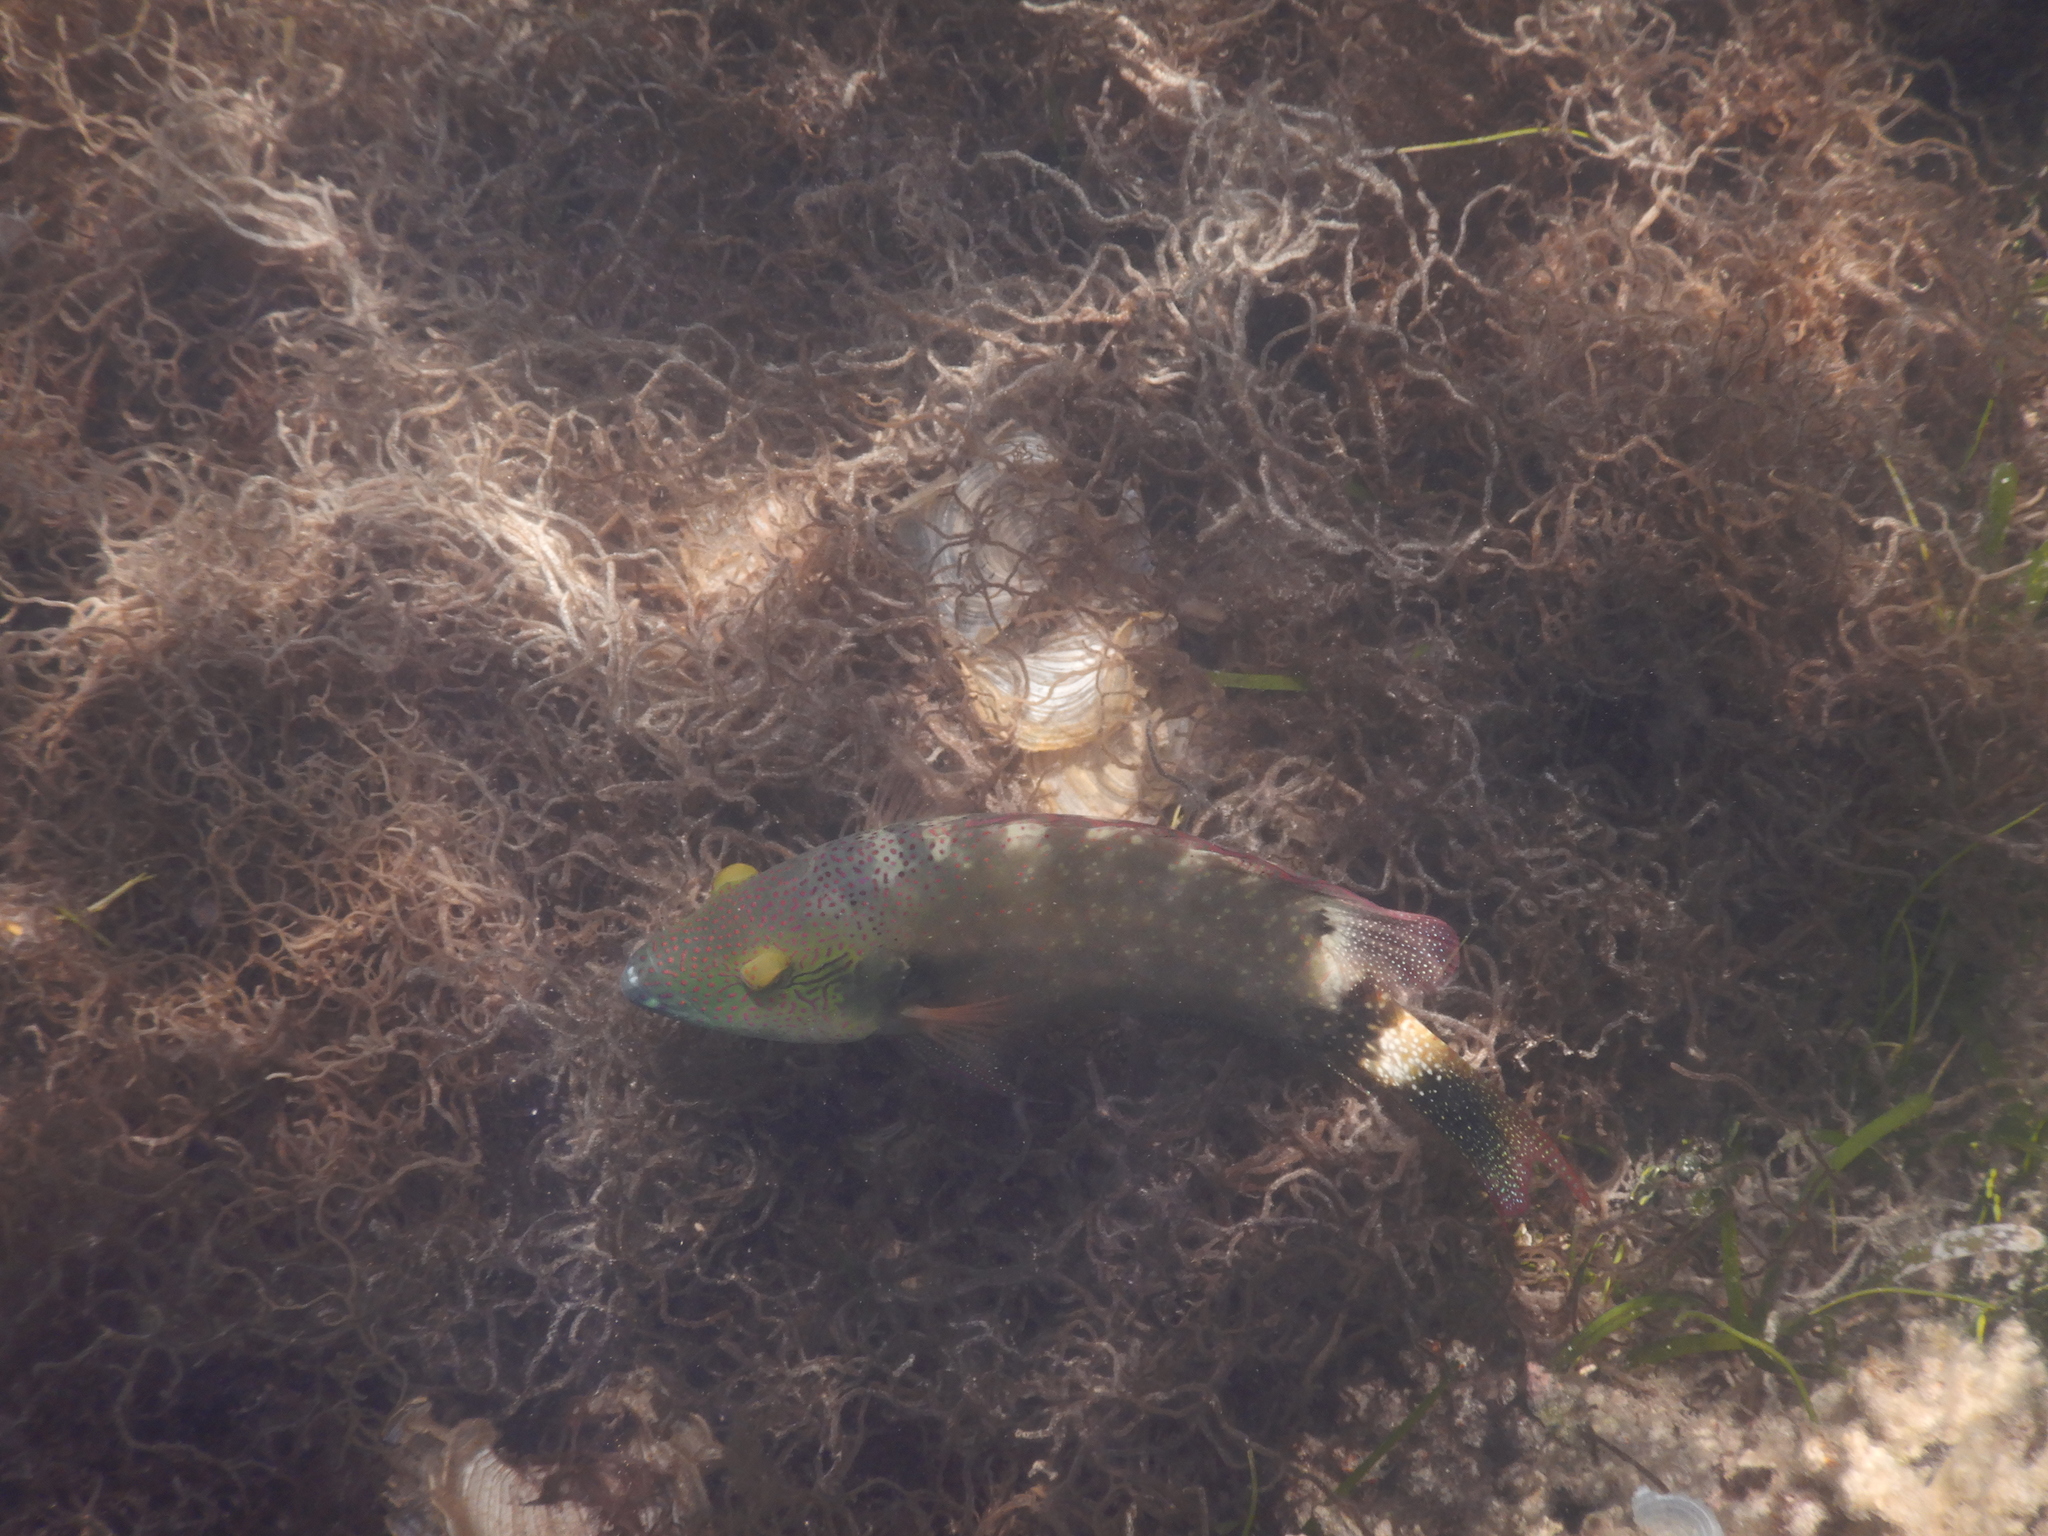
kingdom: Animalia
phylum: Chordata
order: Perciformes
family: Labridae
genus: Cheilinus
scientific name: Cheilinus chlorourus
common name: Floral wrasse
